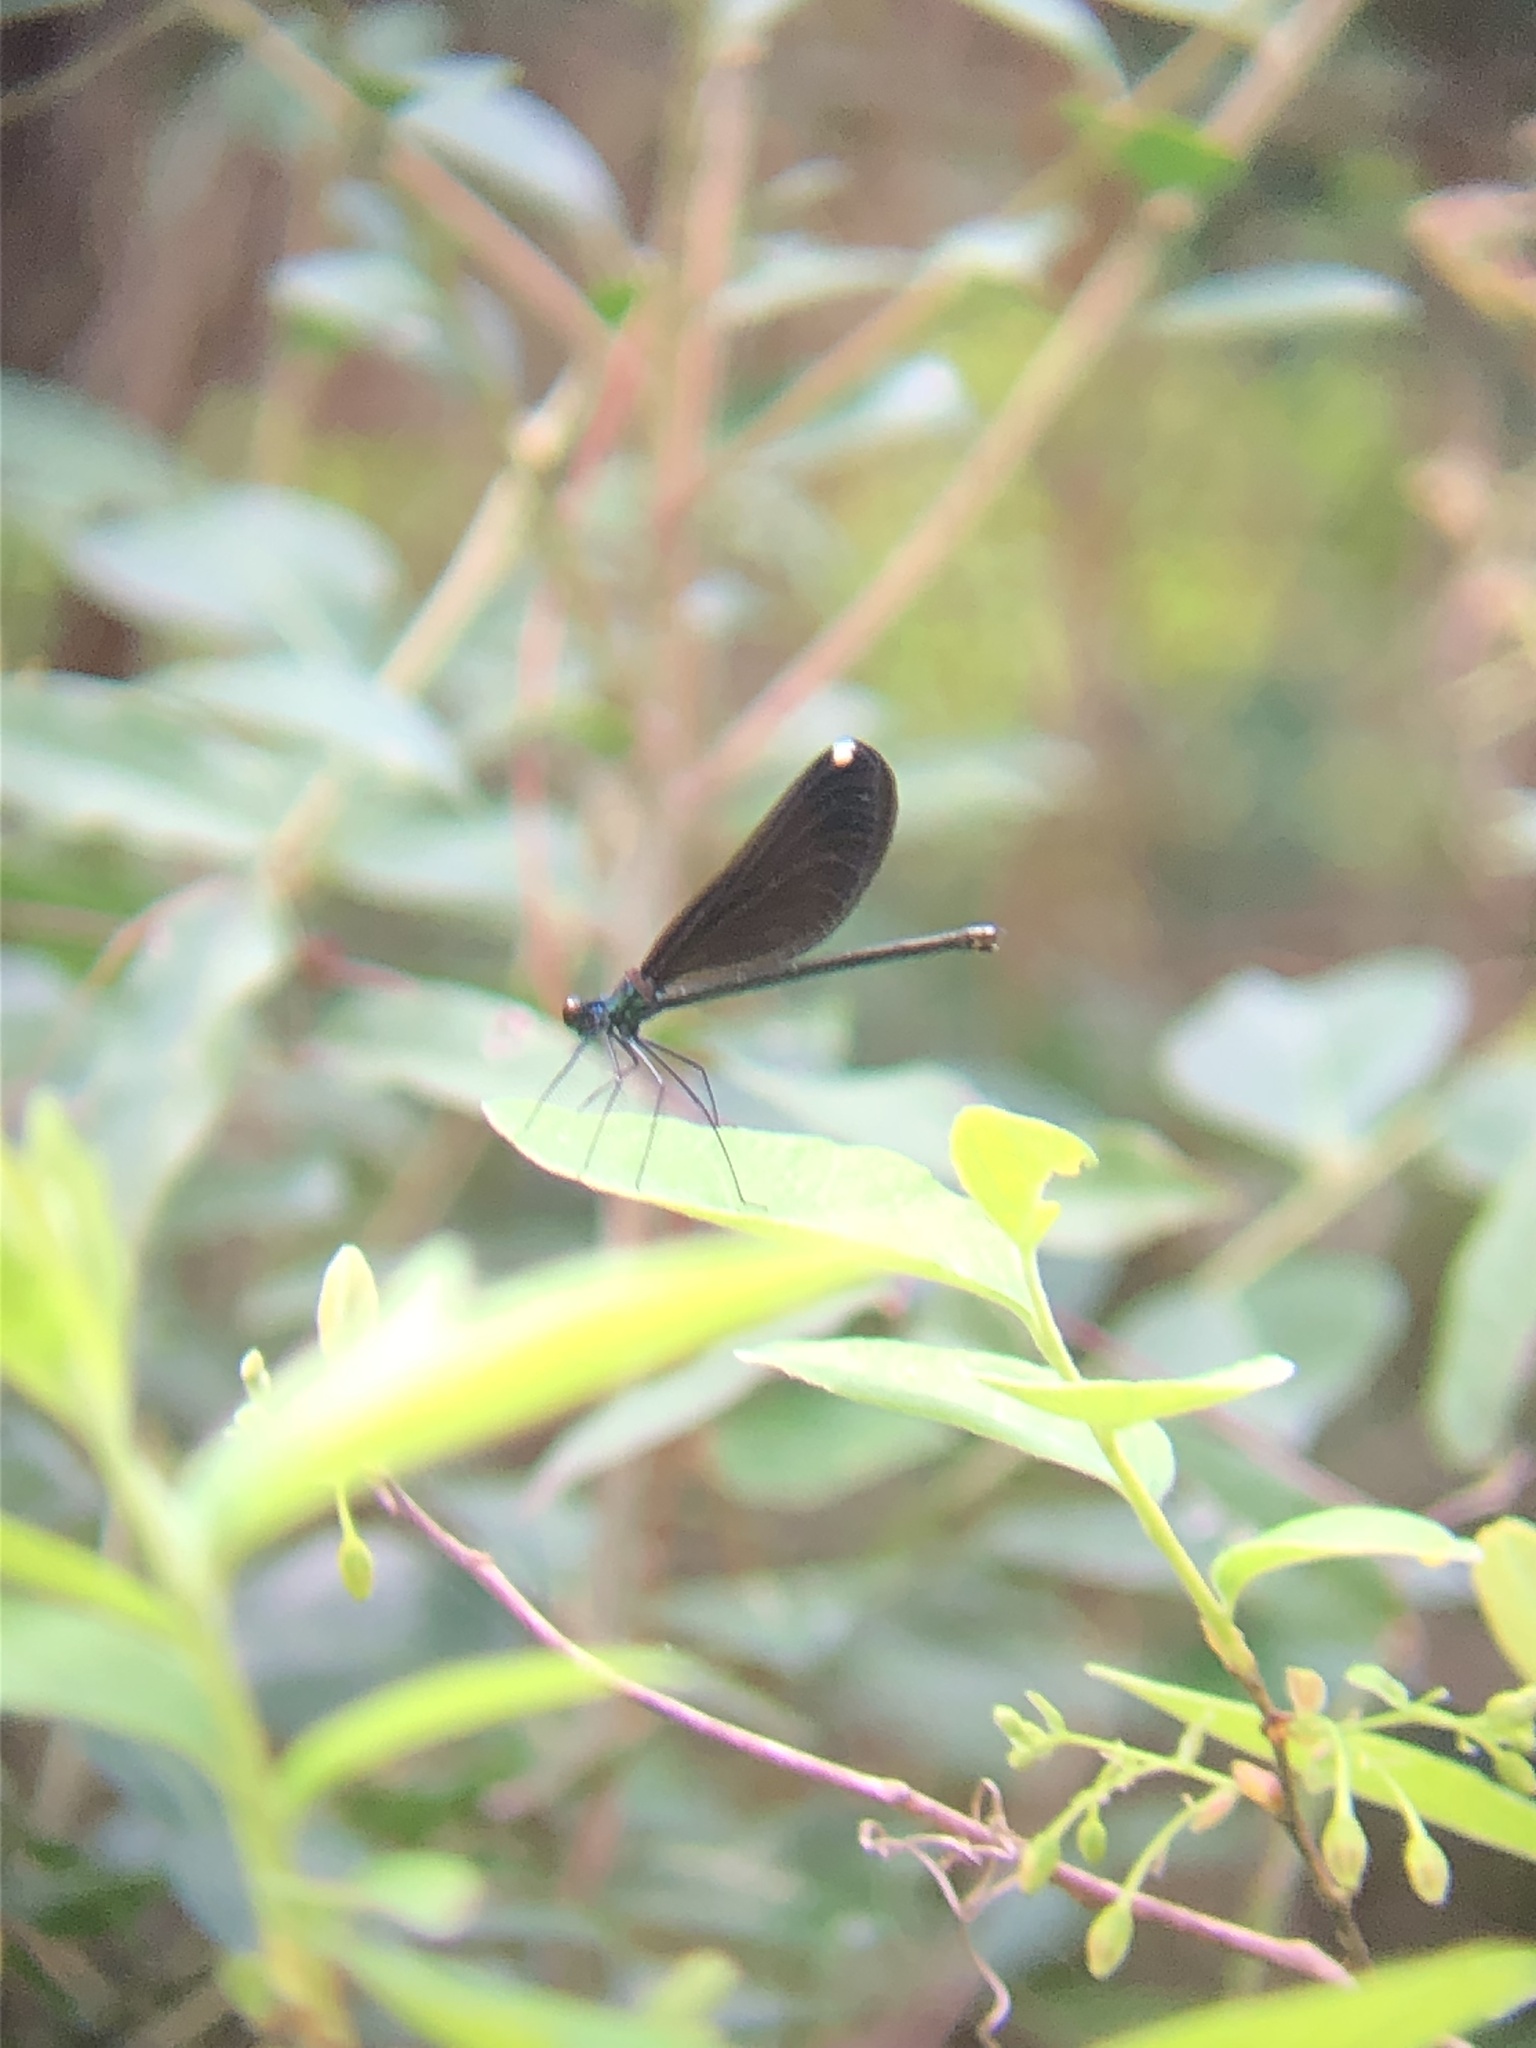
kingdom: Animalia
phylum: Arthropoda
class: Insecta
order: Odonata
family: Calopterygidae
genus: Calopteryx
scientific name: Calopteryx maculata
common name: Ebony jewelwing
